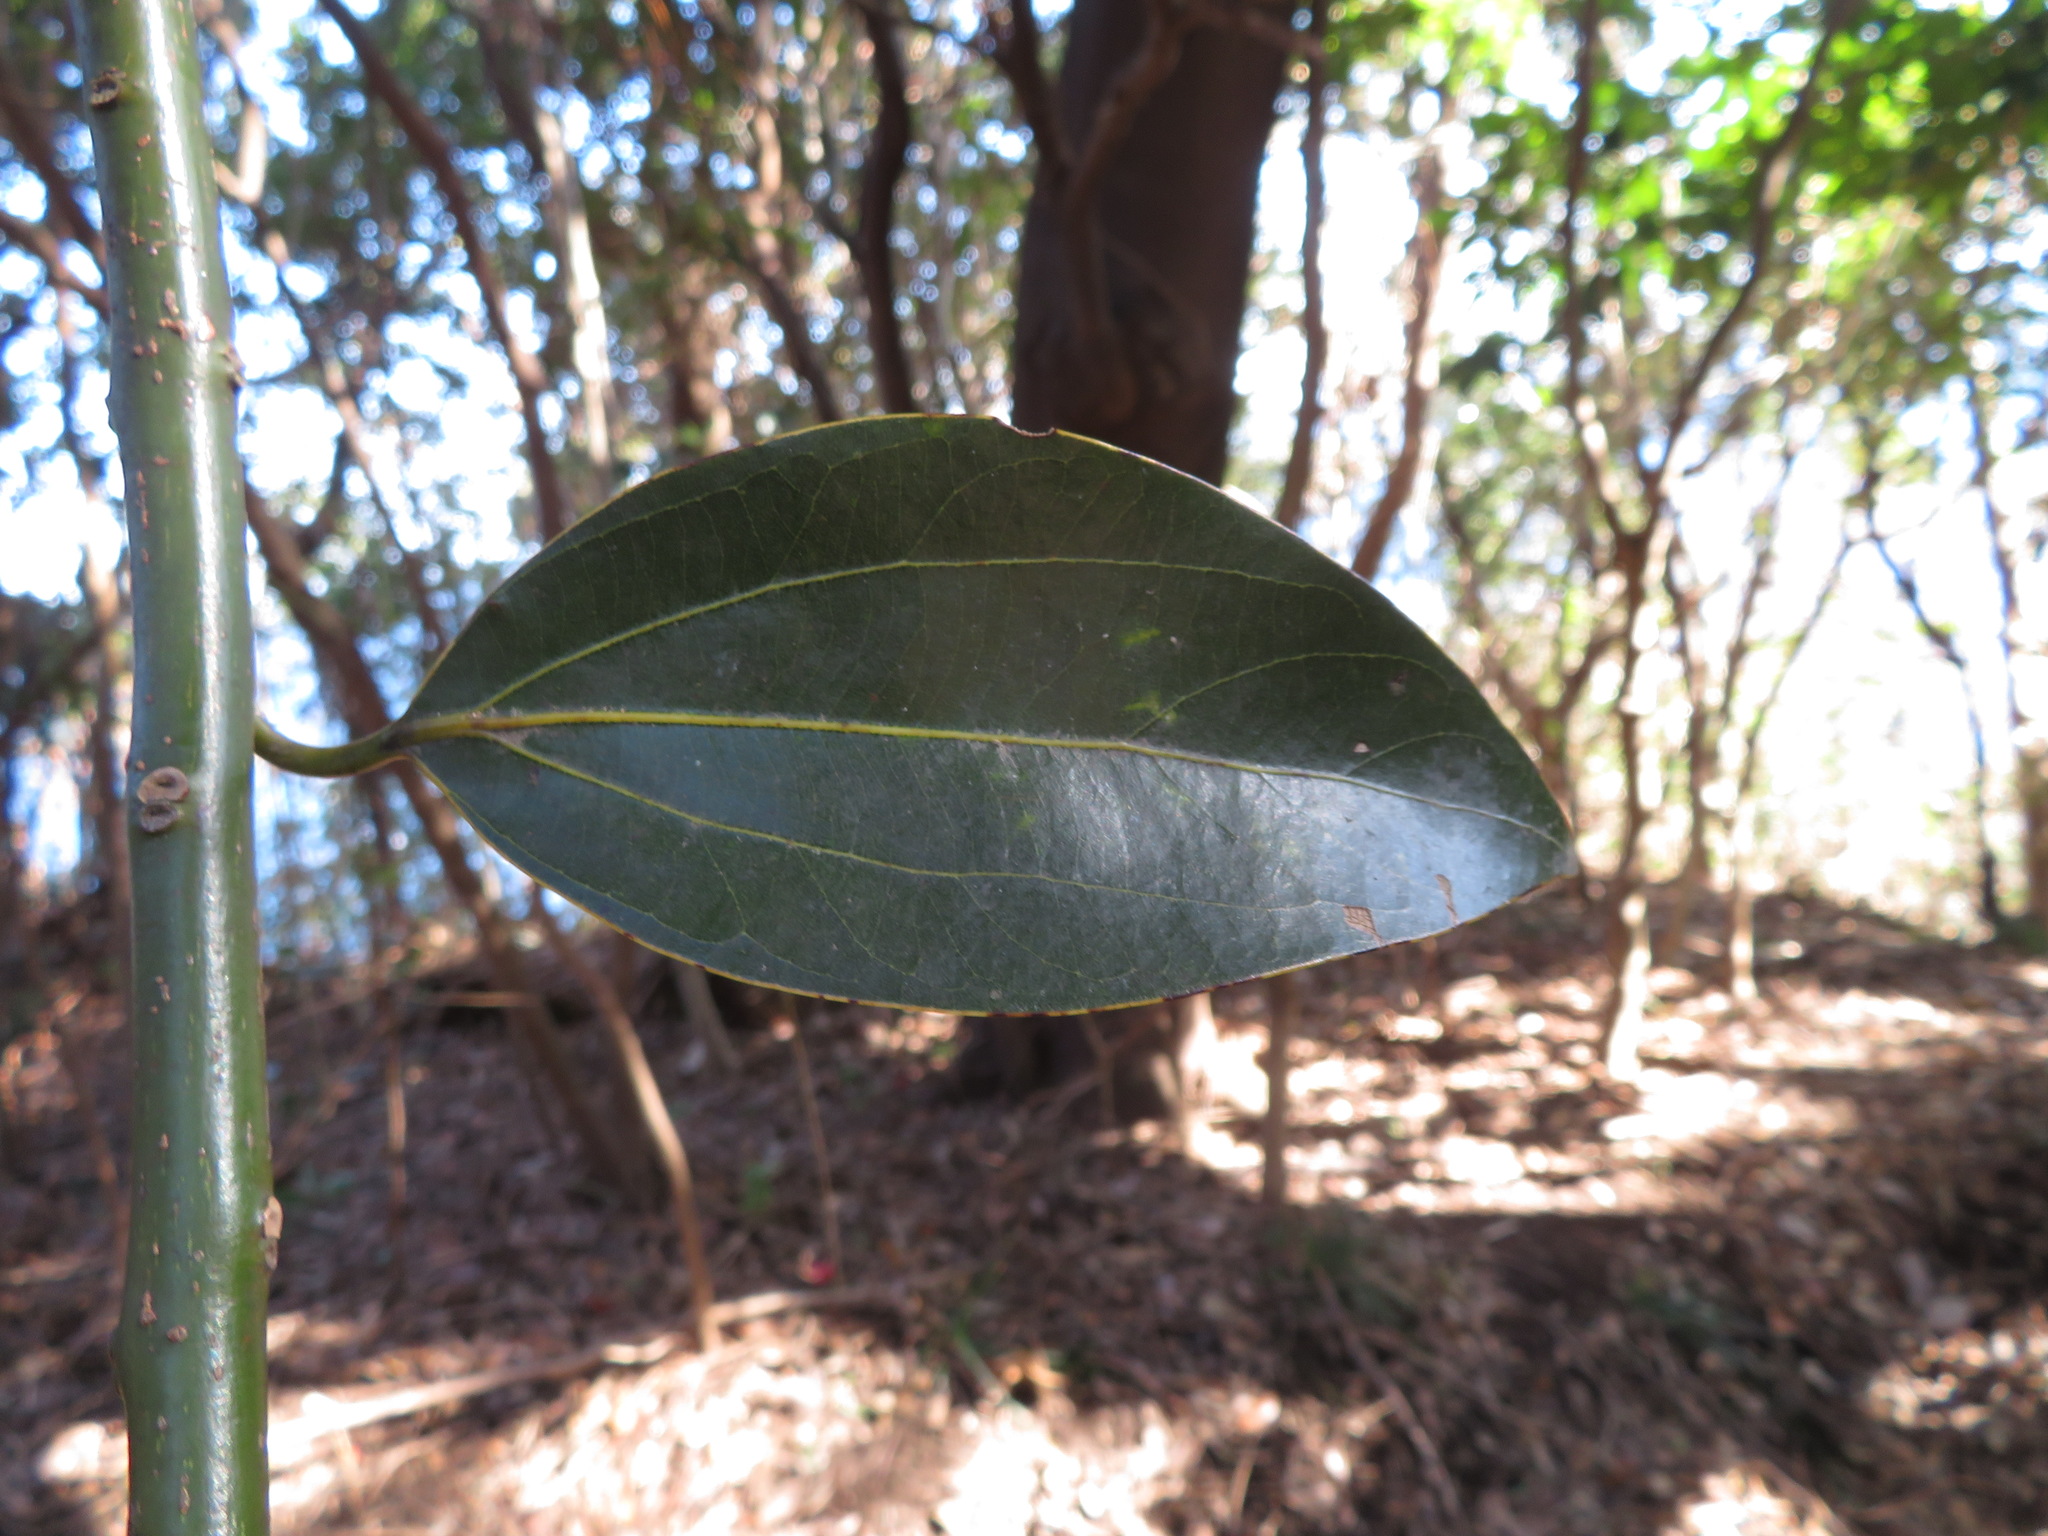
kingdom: Plantae
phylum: Tracheophyta
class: Magnoliopsida
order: Laurales
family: Lauraceae
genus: Cinnamomum
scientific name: Cinnamomum chekiangense
